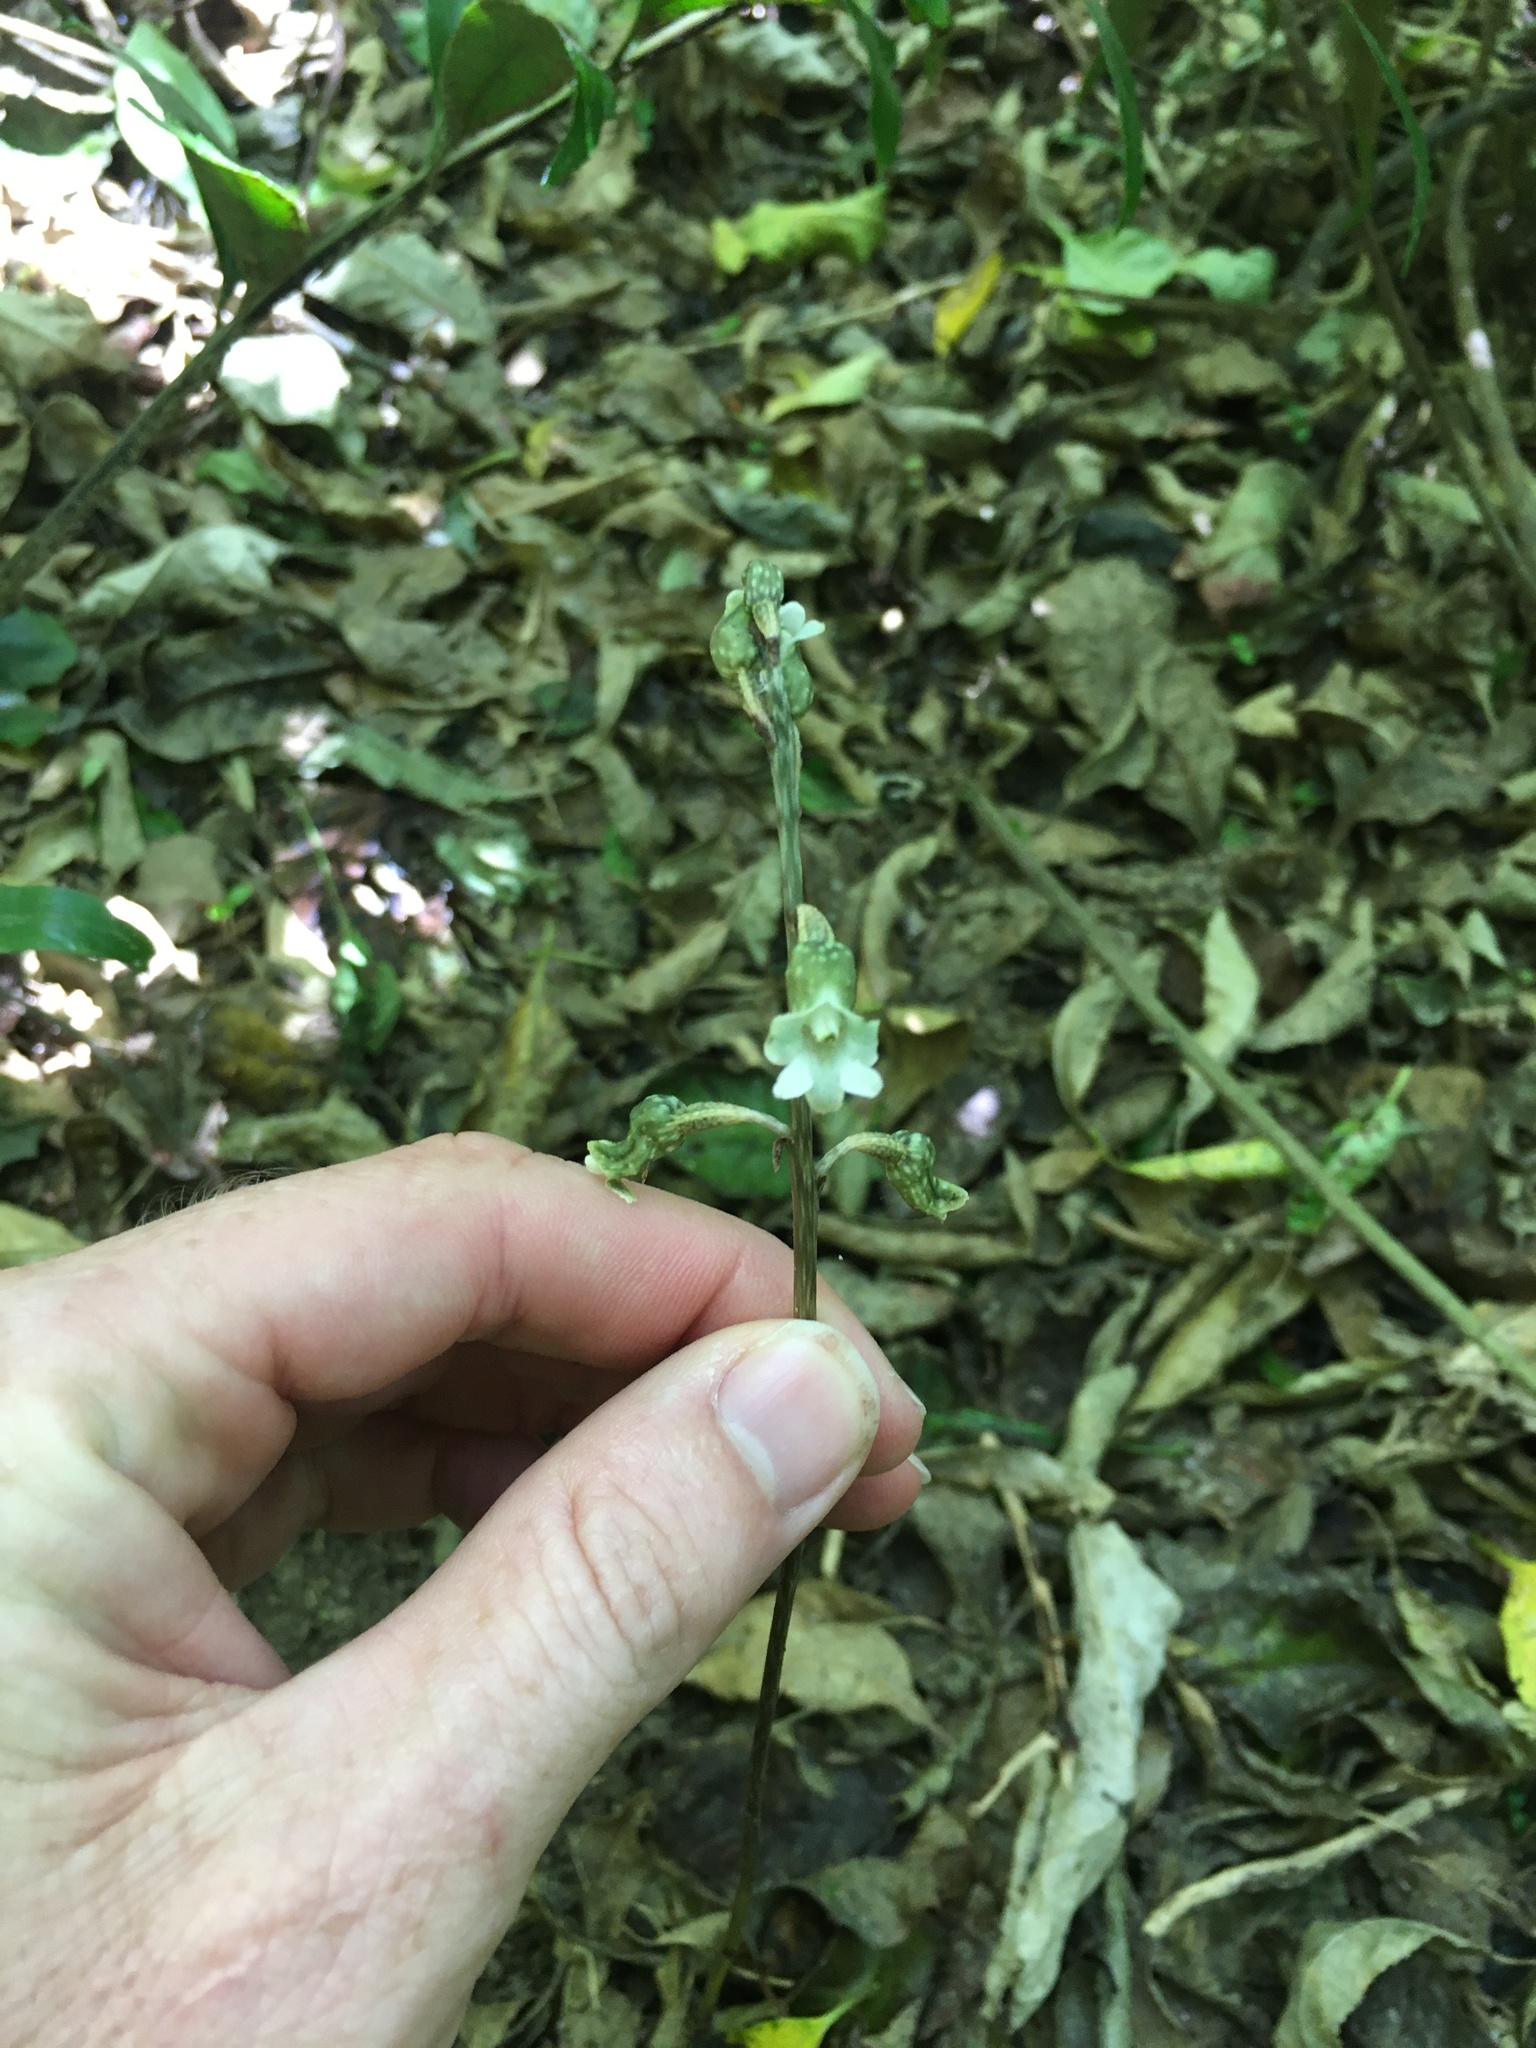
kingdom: Plantae
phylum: Tracheophyta
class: Liliopsida
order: Asparagales
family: Orchidaceae
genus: Gastrodia
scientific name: Gastrodia cunninghamii
